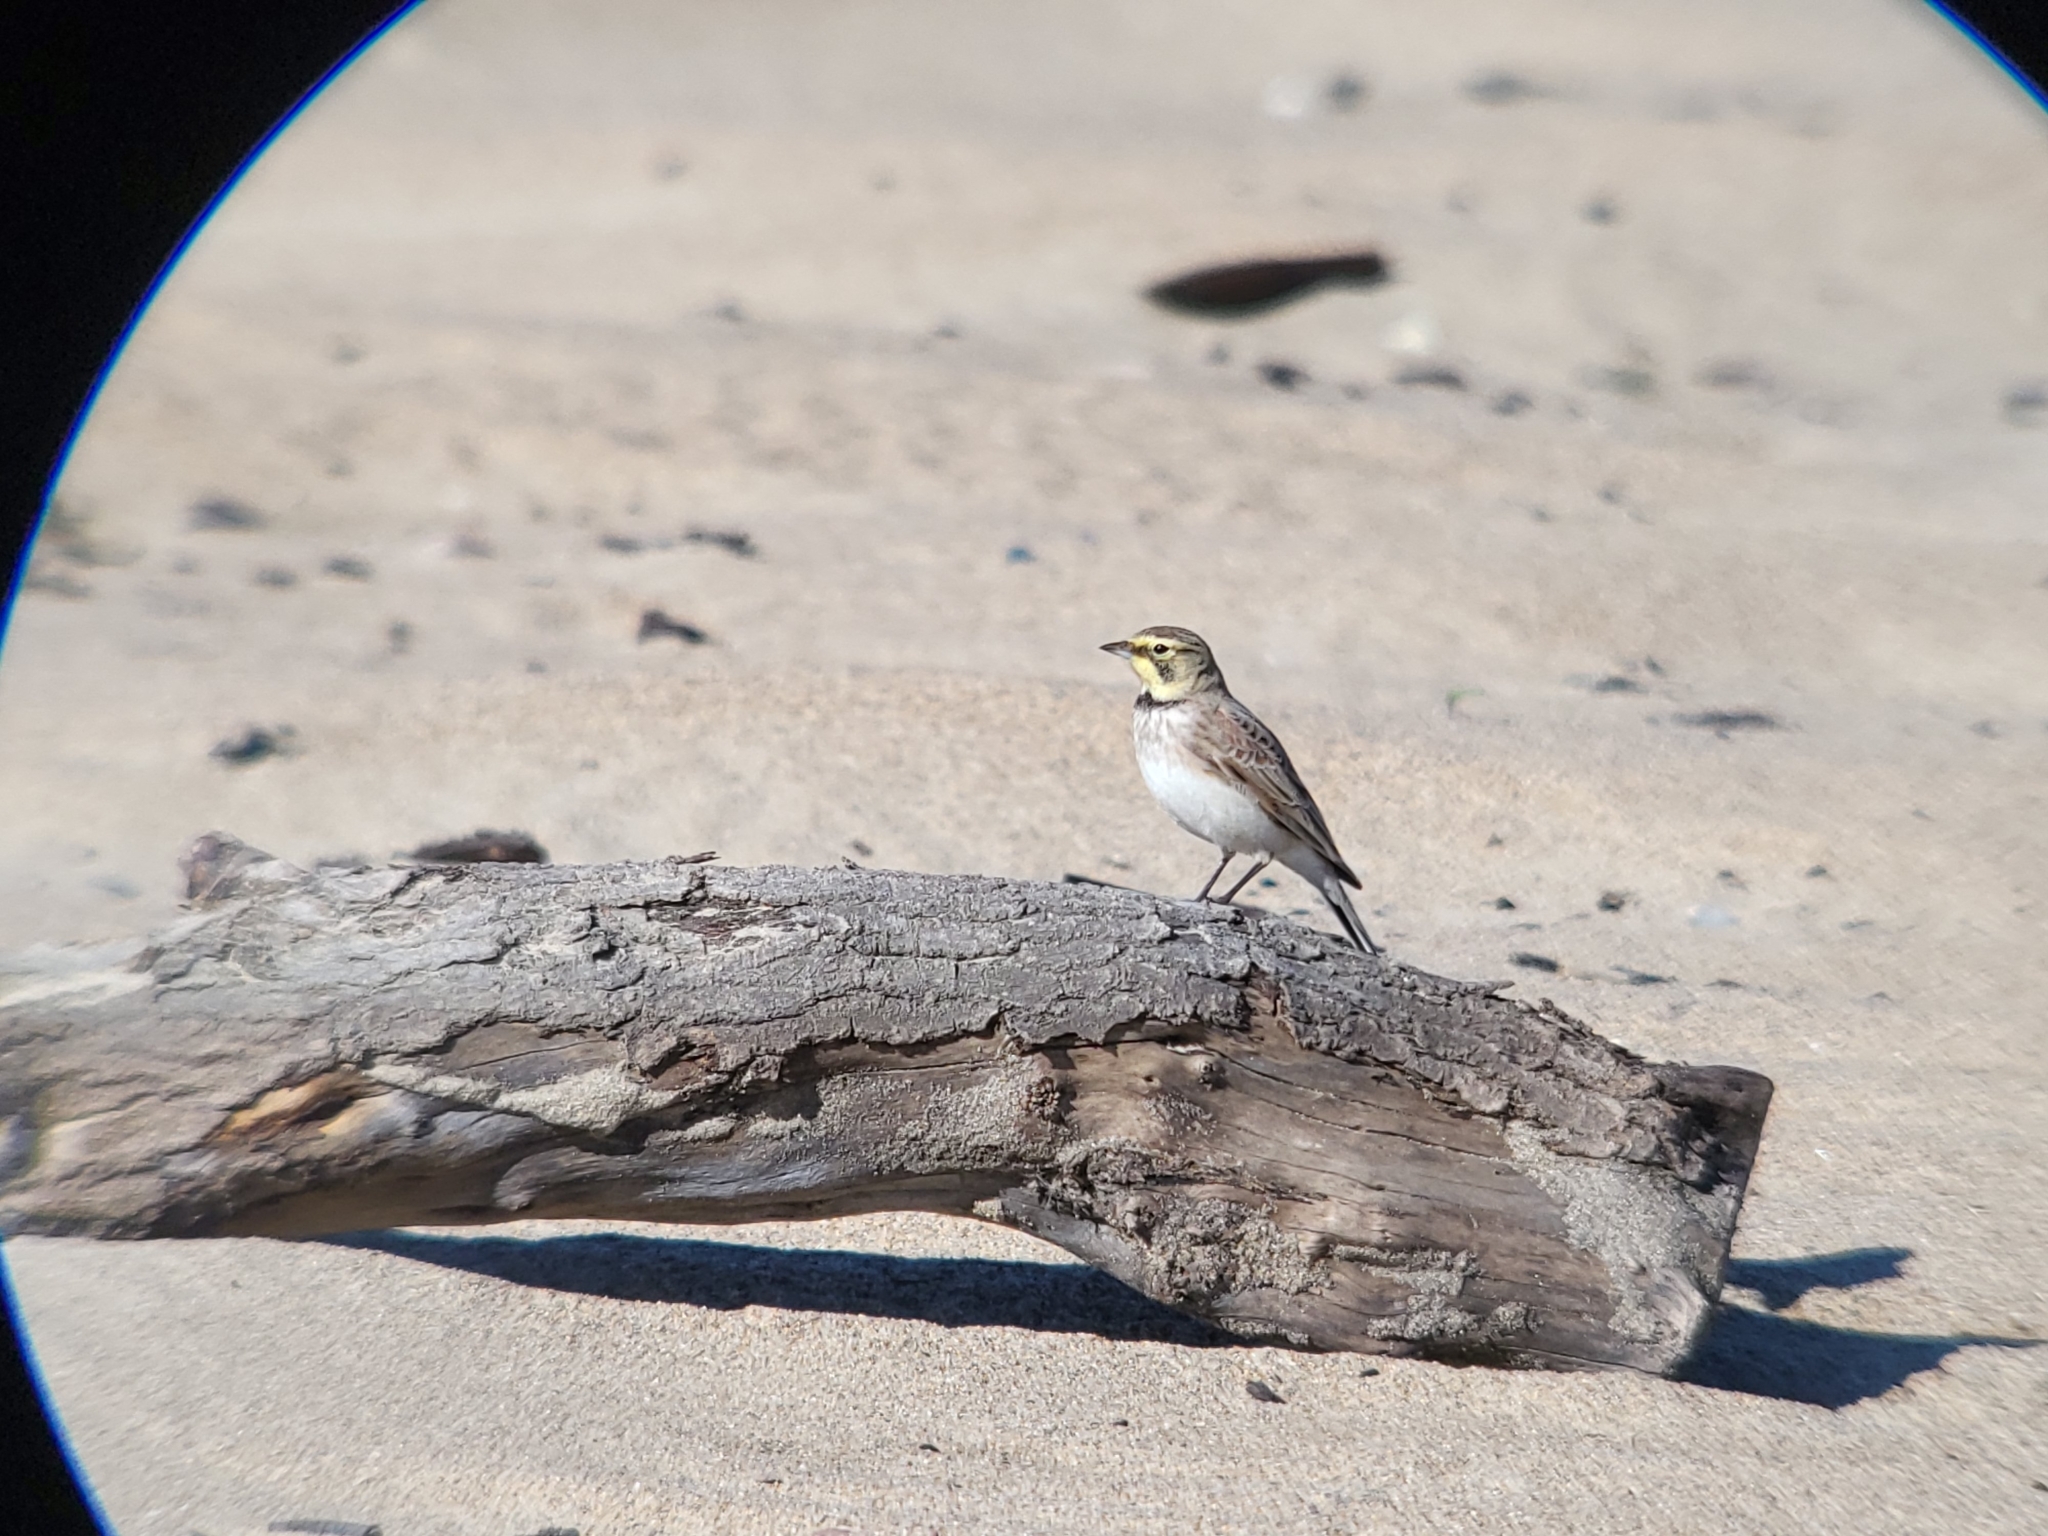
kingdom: Animalia
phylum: Chordata
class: Aves
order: Passeriformes
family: Alaudidae
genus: Eremophila
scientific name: Eremophila alpestris
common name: Horned lark
